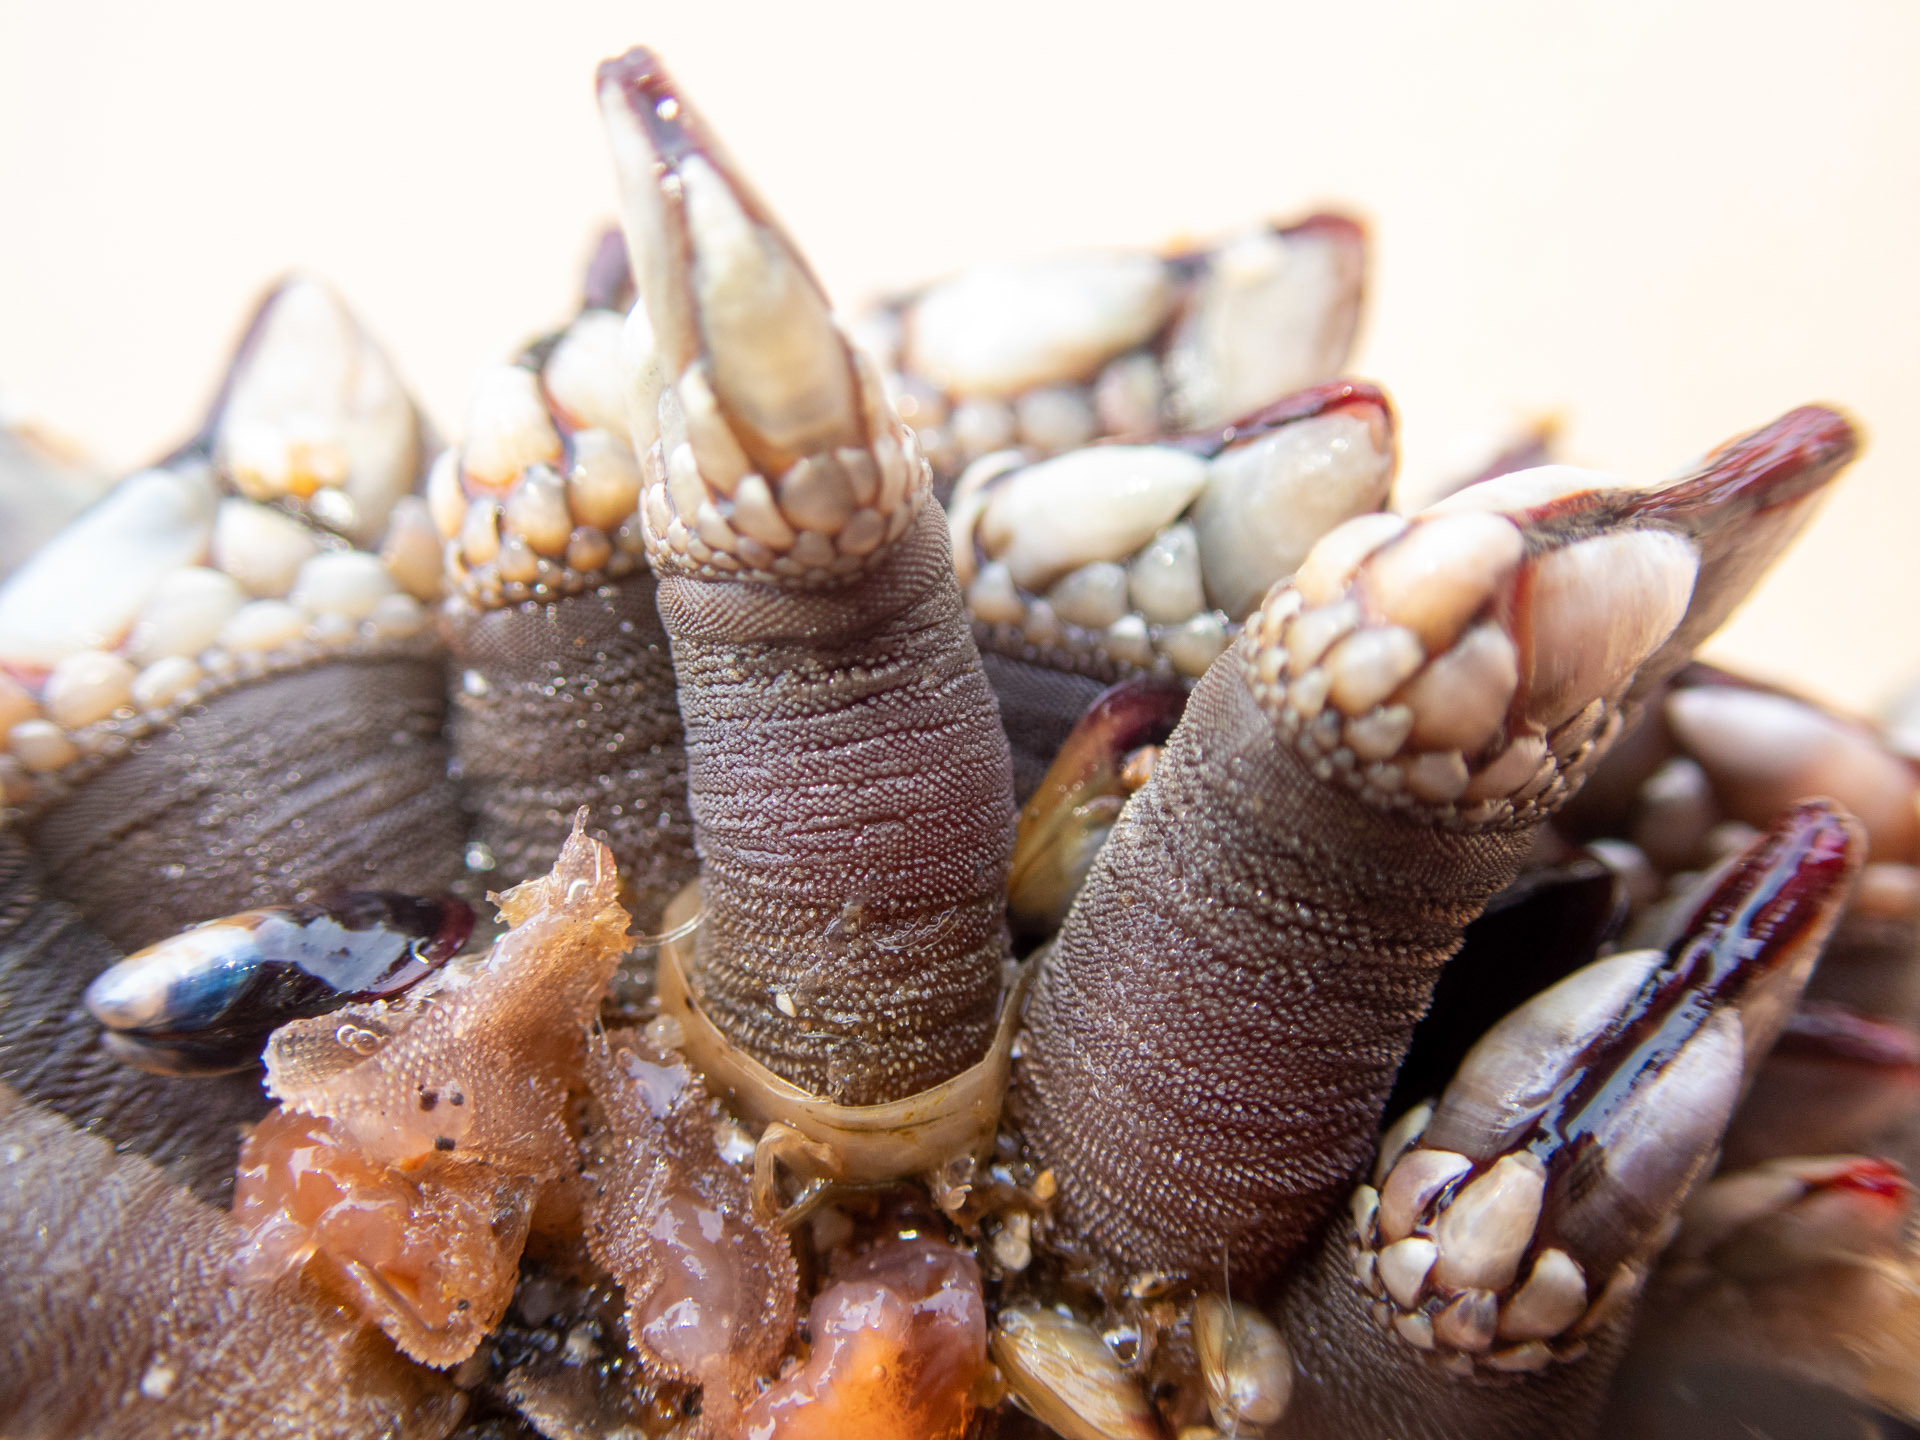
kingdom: Animalia
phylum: Arthropoda
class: Maxillopoda
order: Pedunculata
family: Pollicipedidae
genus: Pollicipes
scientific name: Pollicipes polymerus
